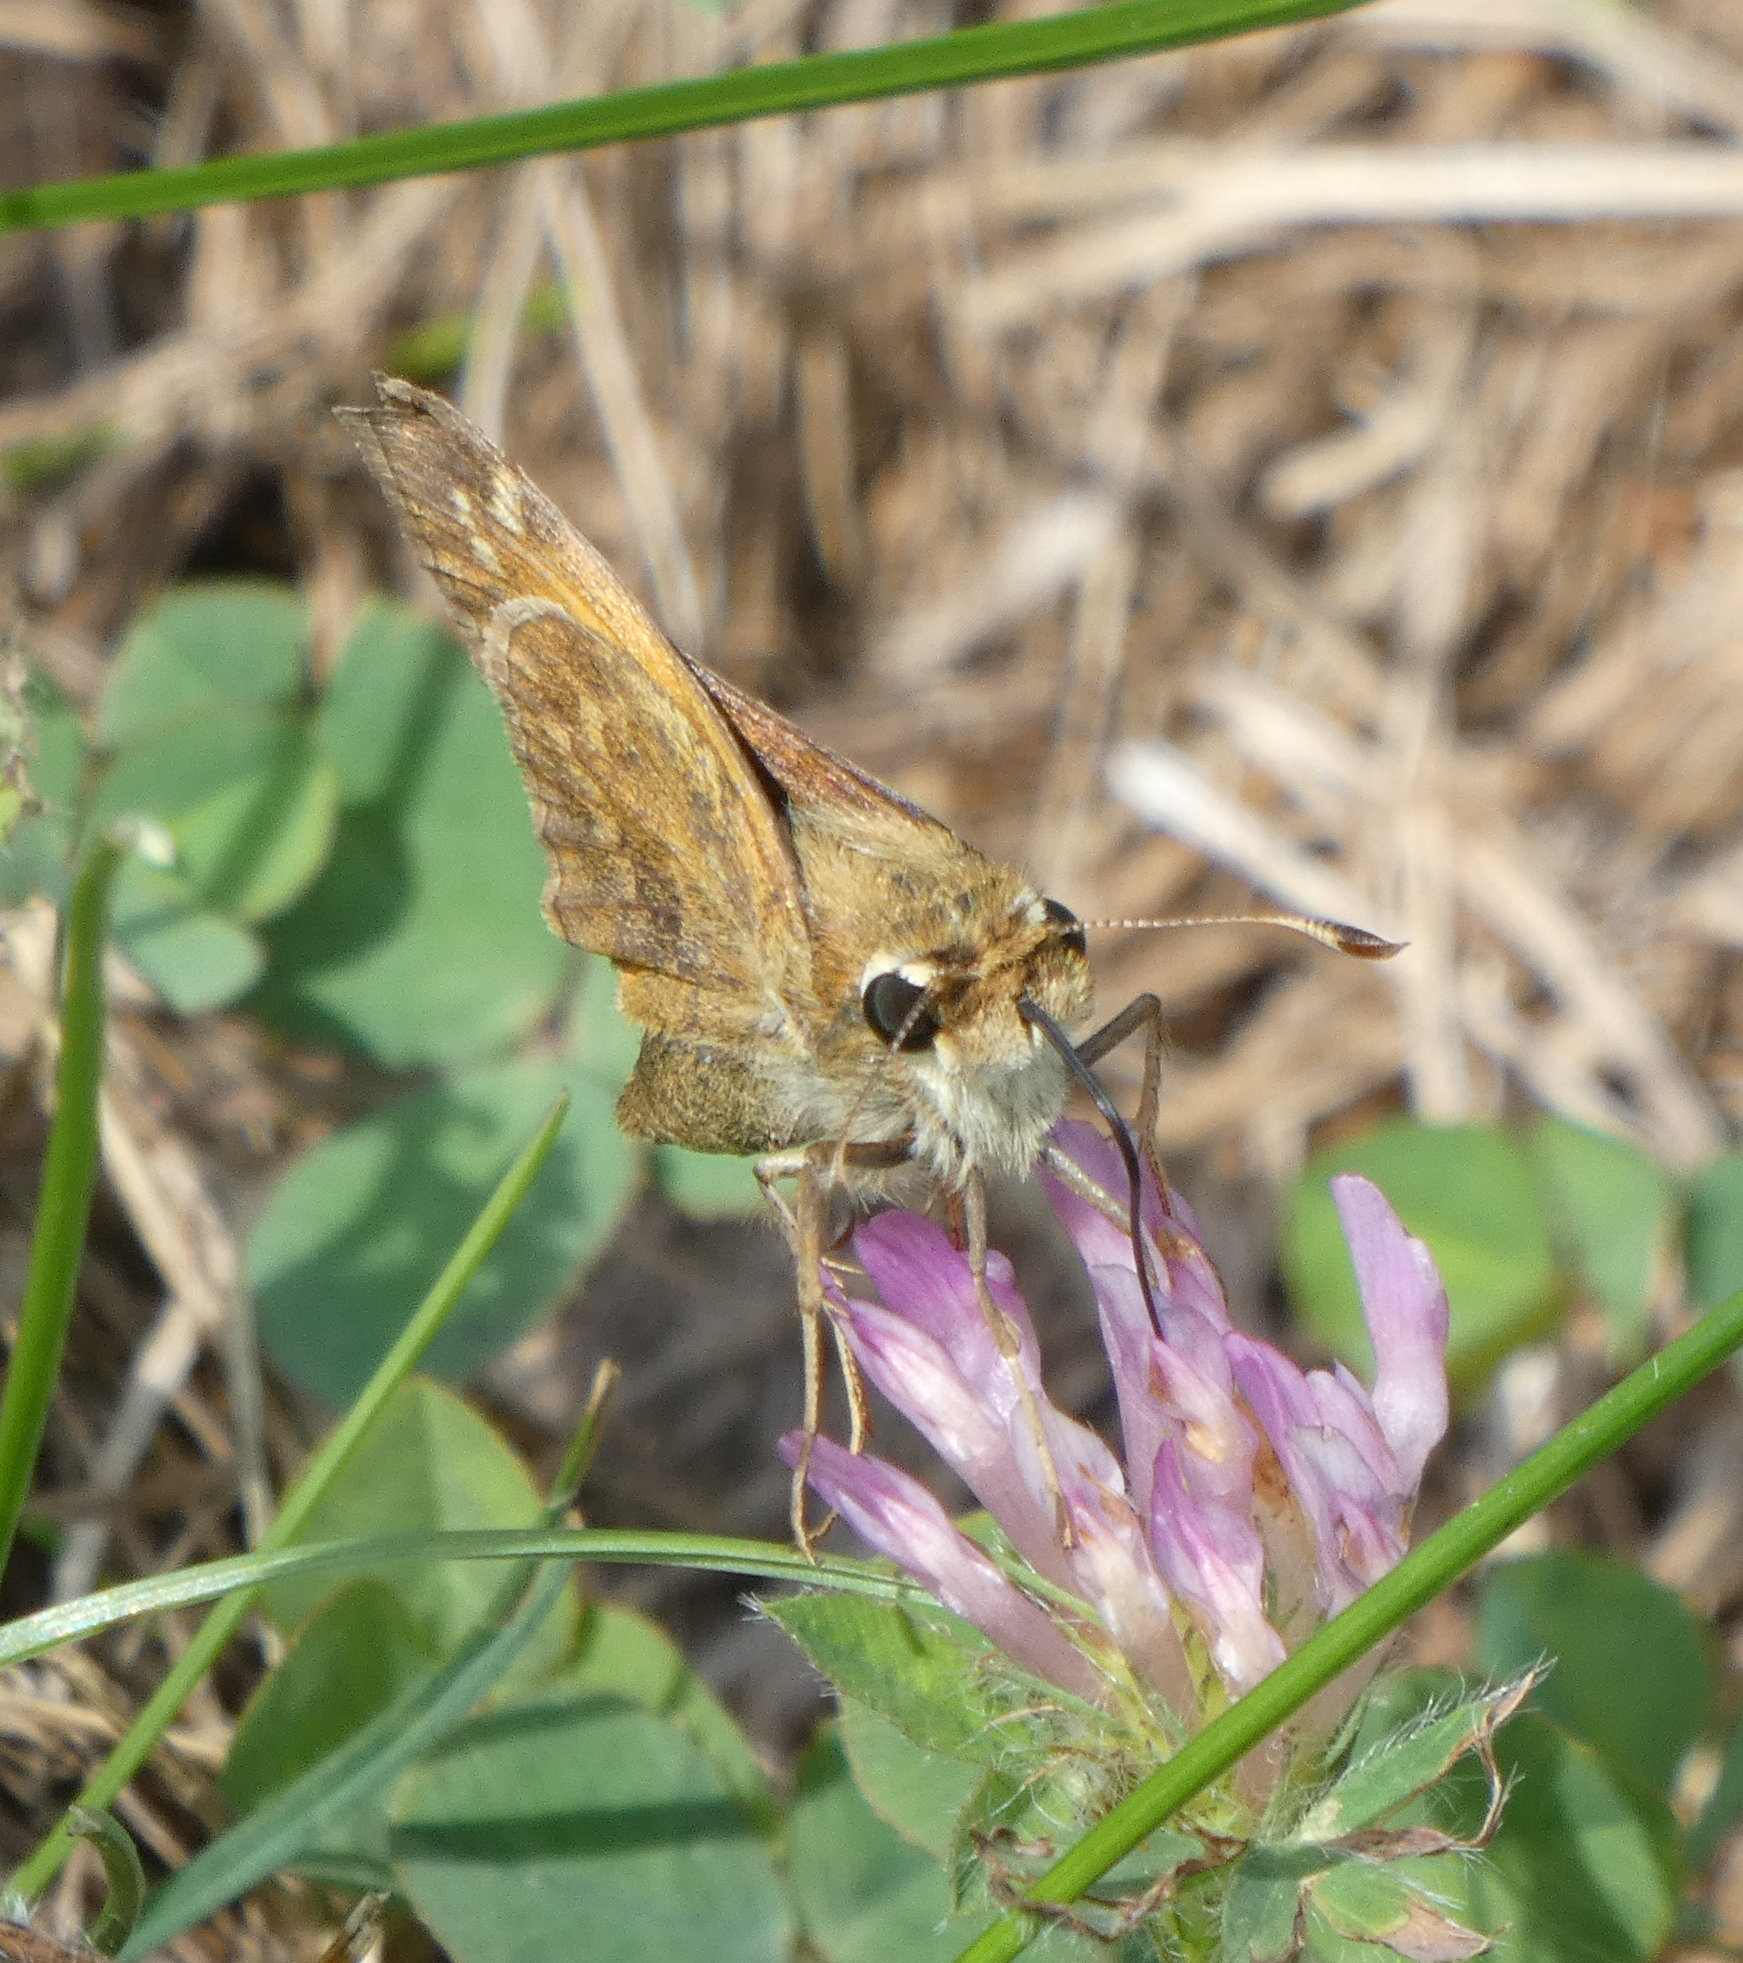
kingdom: Animalia
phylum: Arthropoda
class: Insecta
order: Lepidoptera
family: Hesperiidae
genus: Atalopedes
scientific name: Atalopedes
